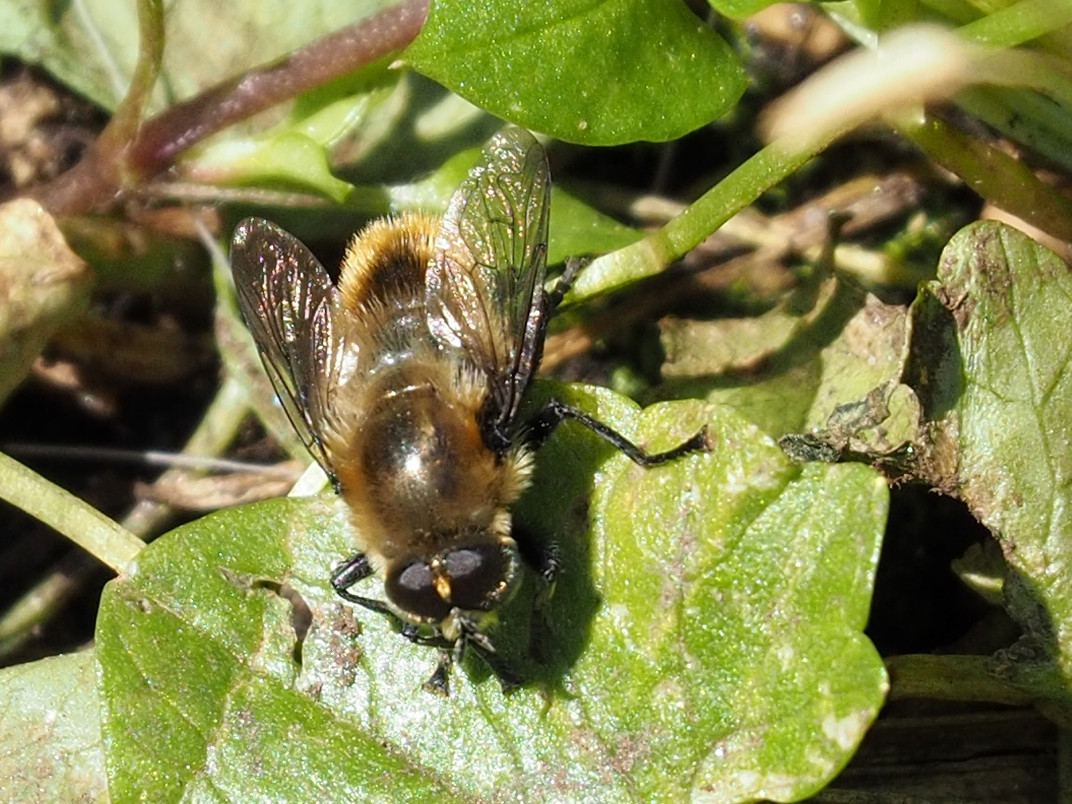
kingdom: Animalia
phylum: Arthropoda
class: Insecta
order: Diptera
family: Syrphidae
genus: Merodon
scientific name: Merodon equestris
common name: Greater bulb-fly
